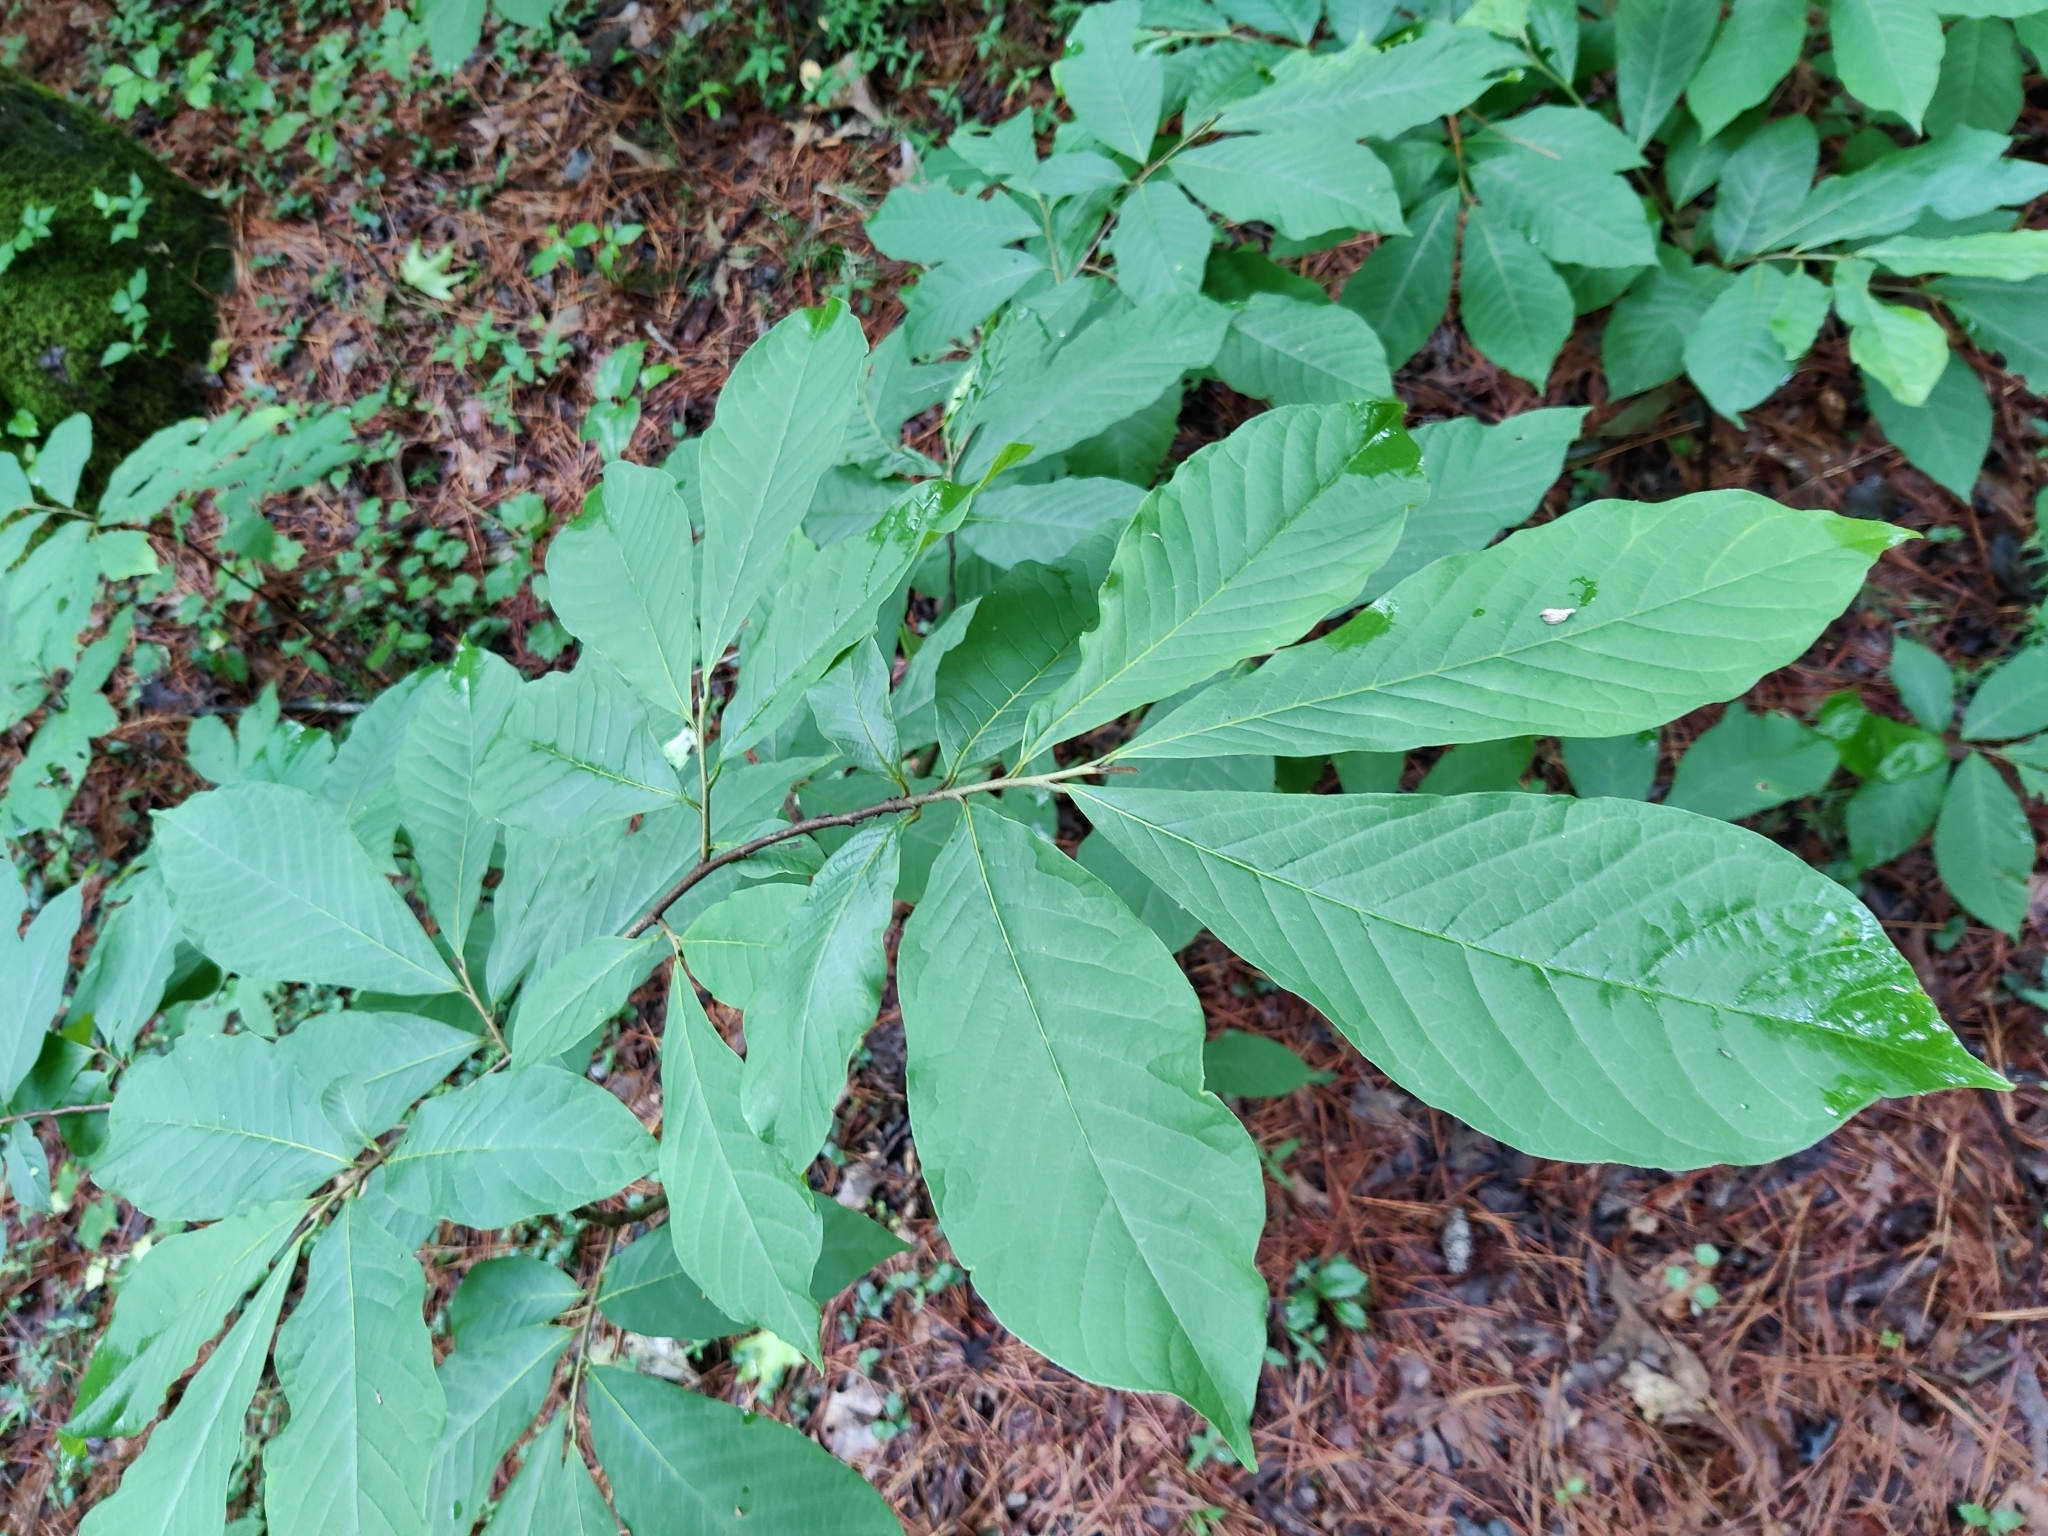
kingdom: Plantae
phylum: Tracheophyta
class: Magnoliopsida
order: Magnoliales
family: Annonaceae
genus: Asimina
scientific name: Asimina triloba
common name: Dog-banana
